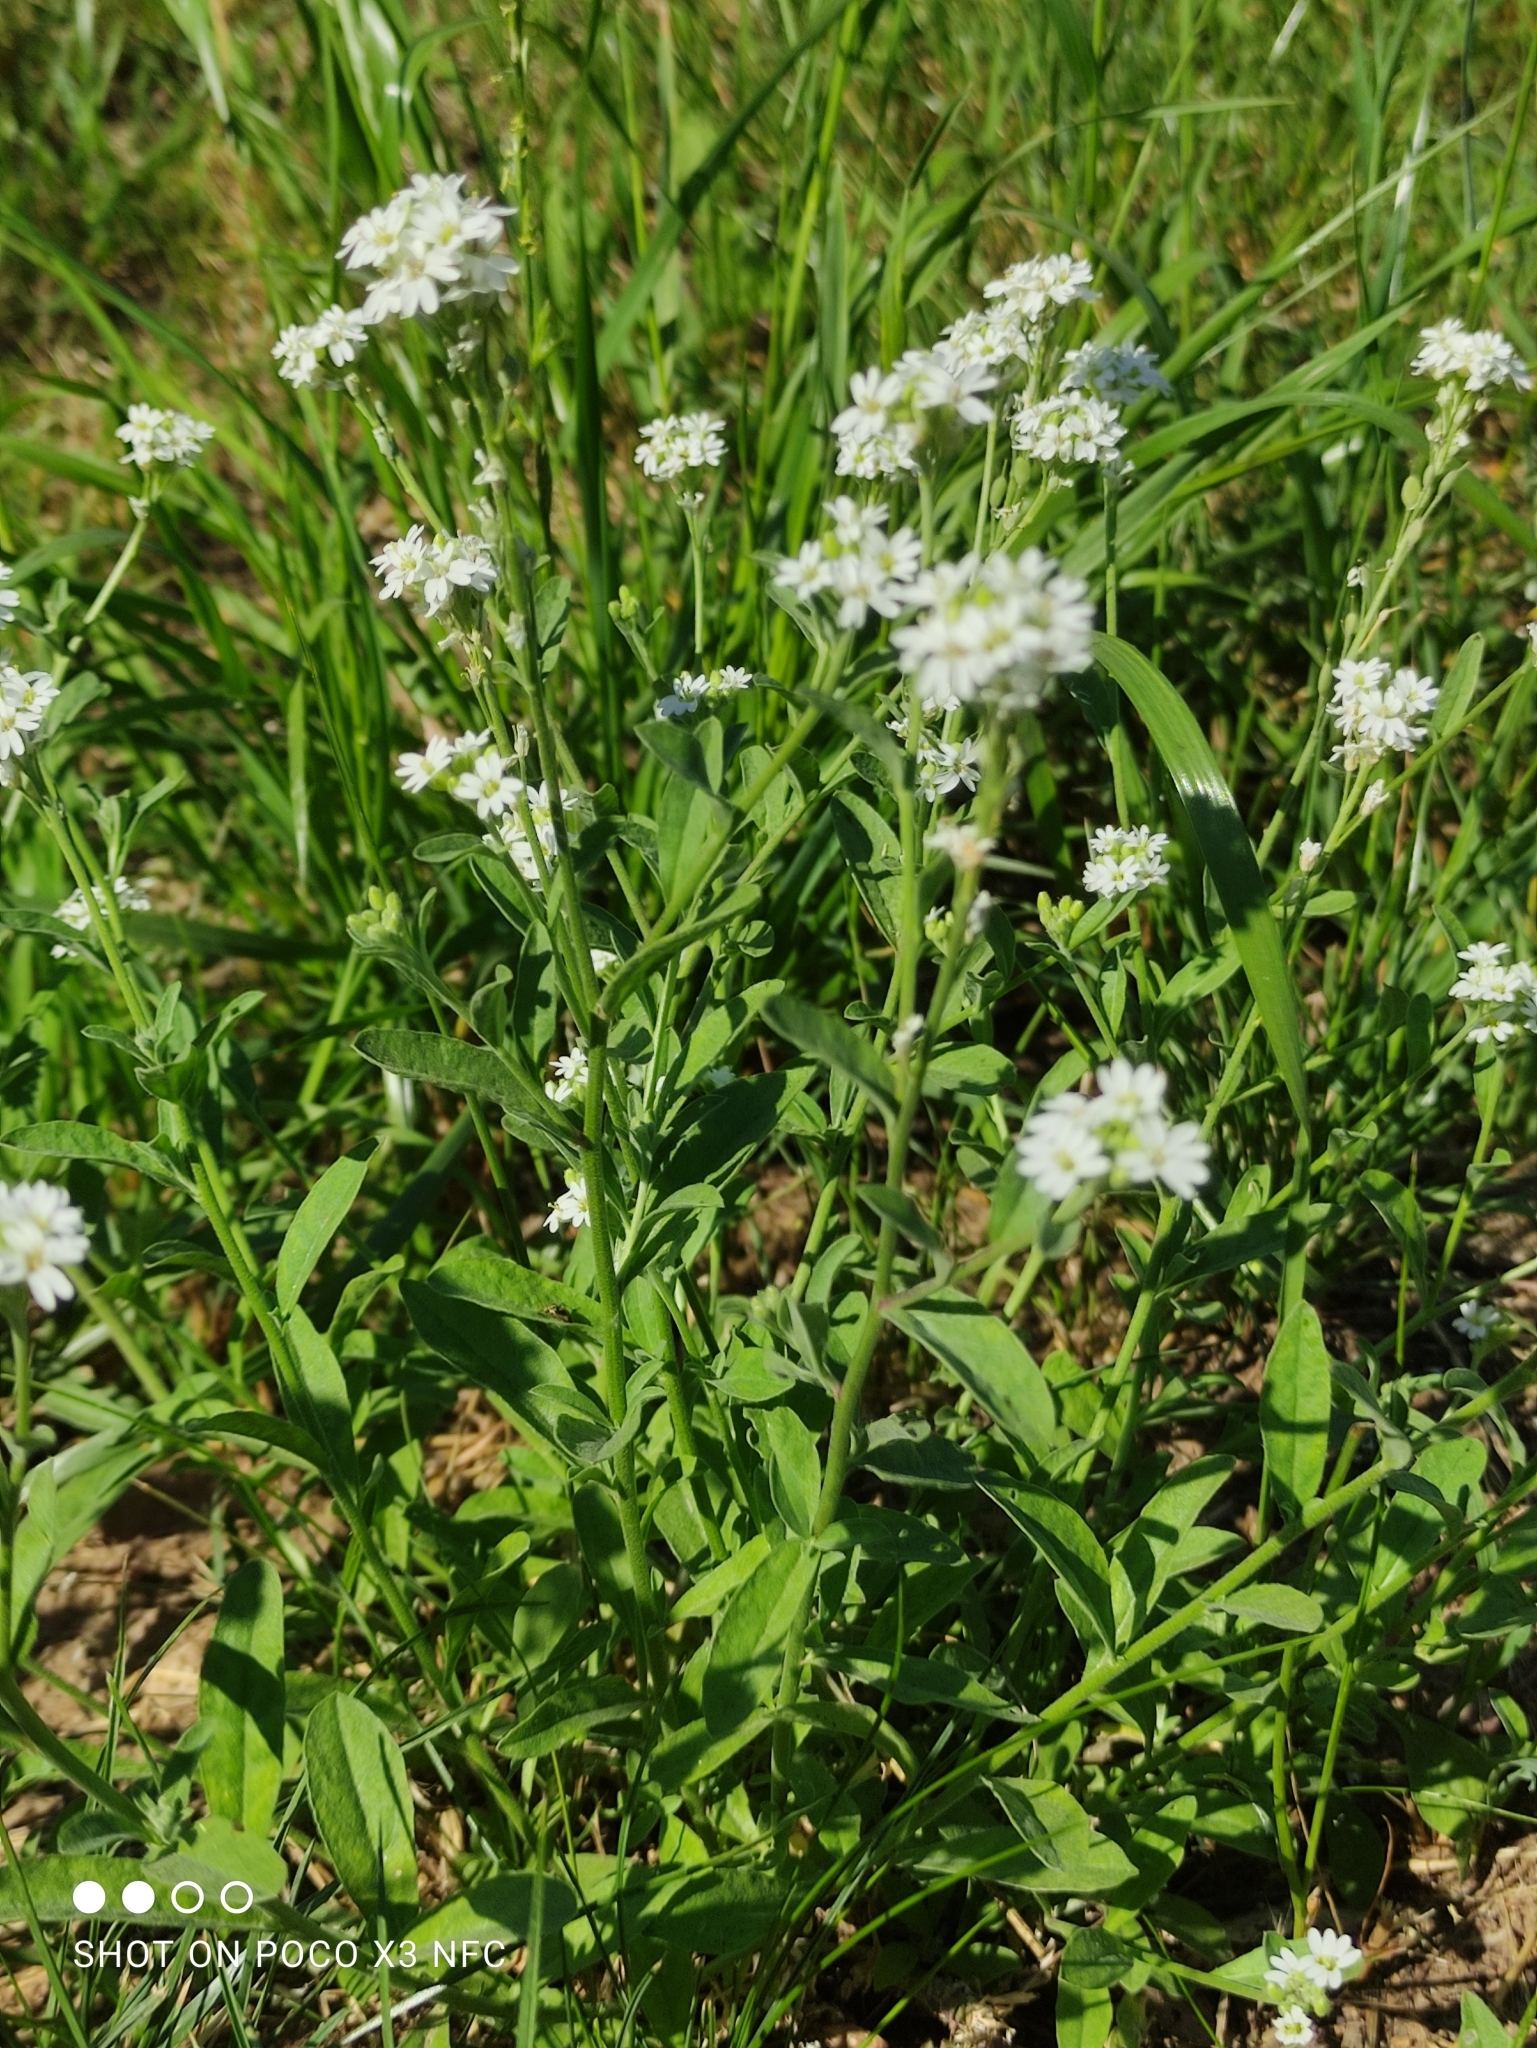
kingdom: Plantae
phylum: Tracheophyta
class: Magnoliopsida
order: Brassicales
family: Brassicaceae
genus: Berteroa
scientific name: Berteroa incana
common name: Hoary alison
